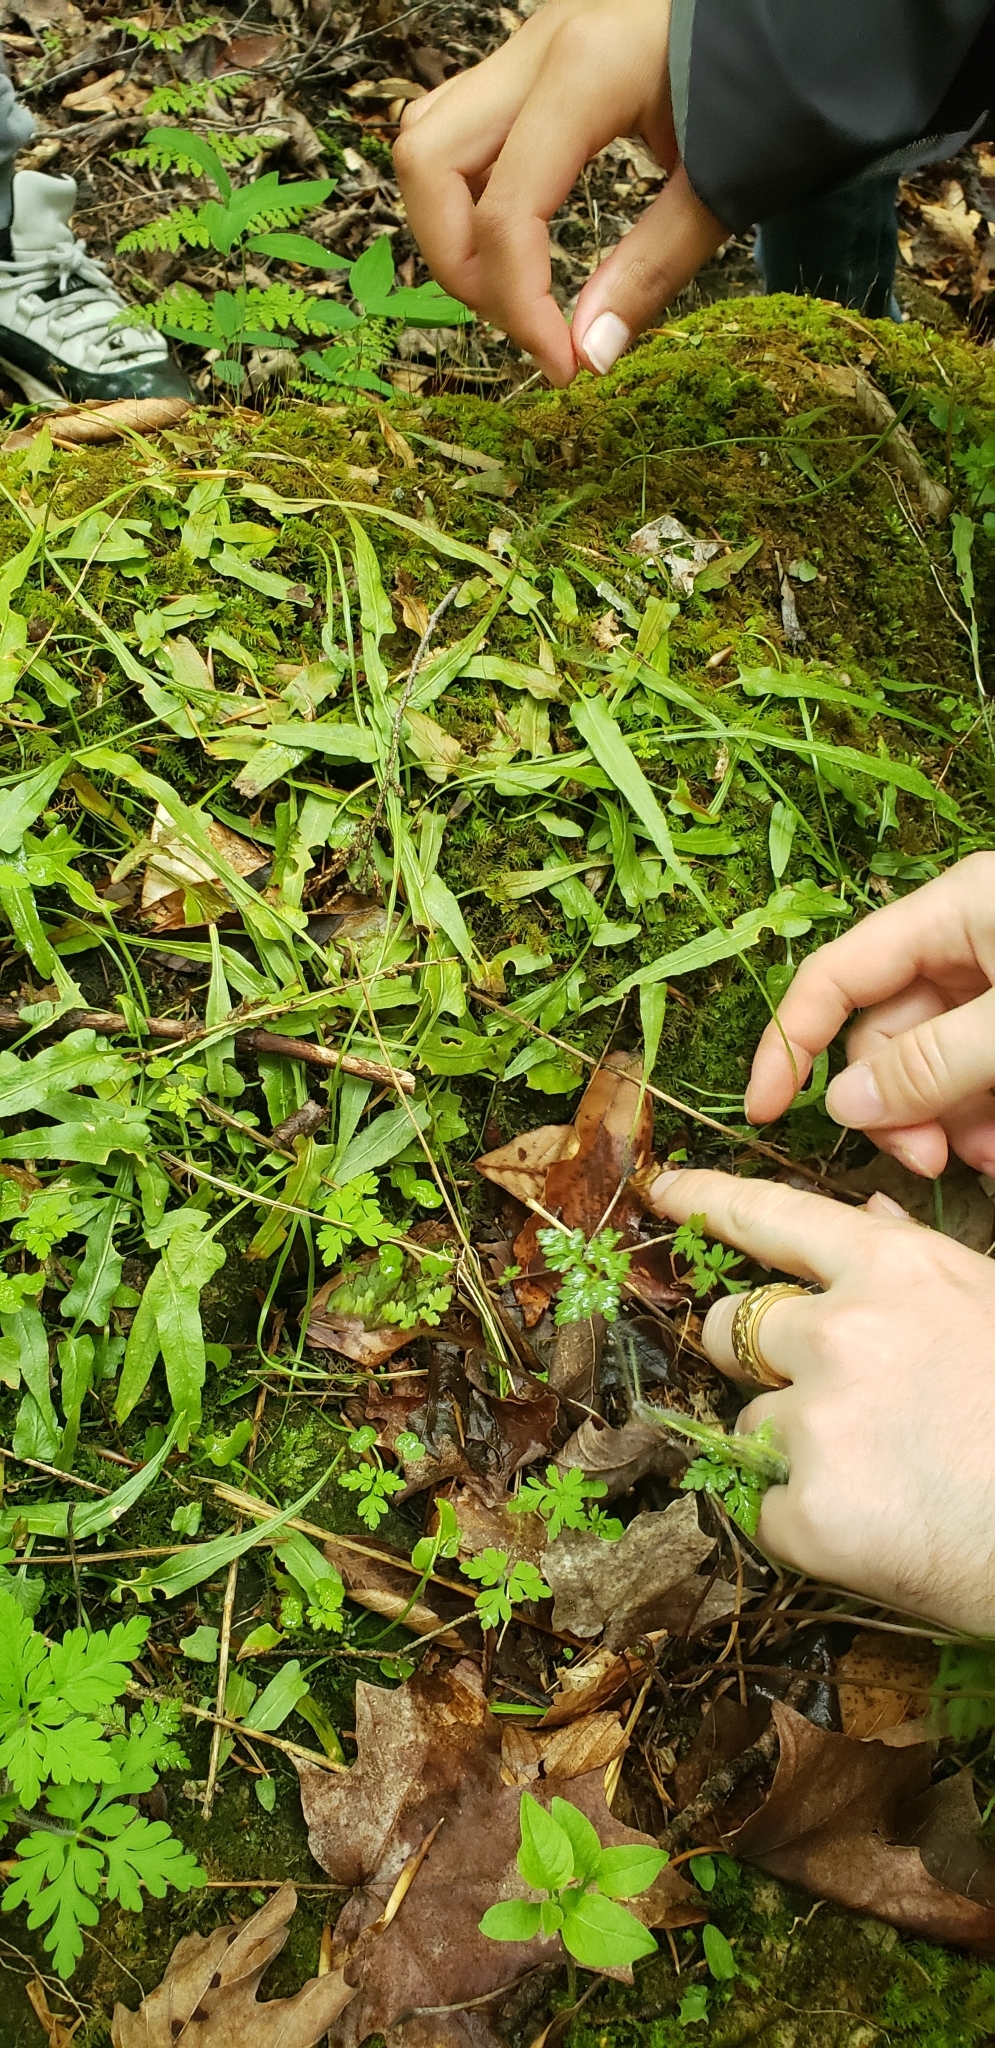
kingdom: Plantae
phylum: Tracheophyta
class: Polypodiopsida
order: Polypodiales
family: Aspleniaceae
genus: Asplenium
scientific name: Asplenium rhizophyllum
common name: Walking fern
